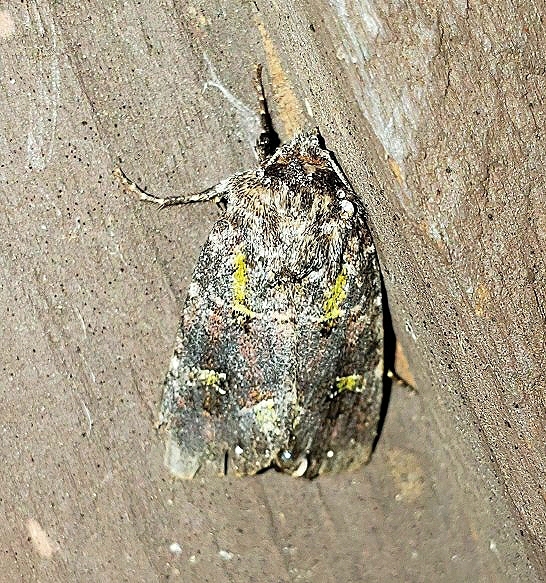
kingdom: Animalia
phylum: Arthropoda
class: Insecta
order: Lepidoptera
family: Noctuidae
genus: Lacinipolia
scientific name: Lacinipolia renigera
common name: Kidney-spotted minor
